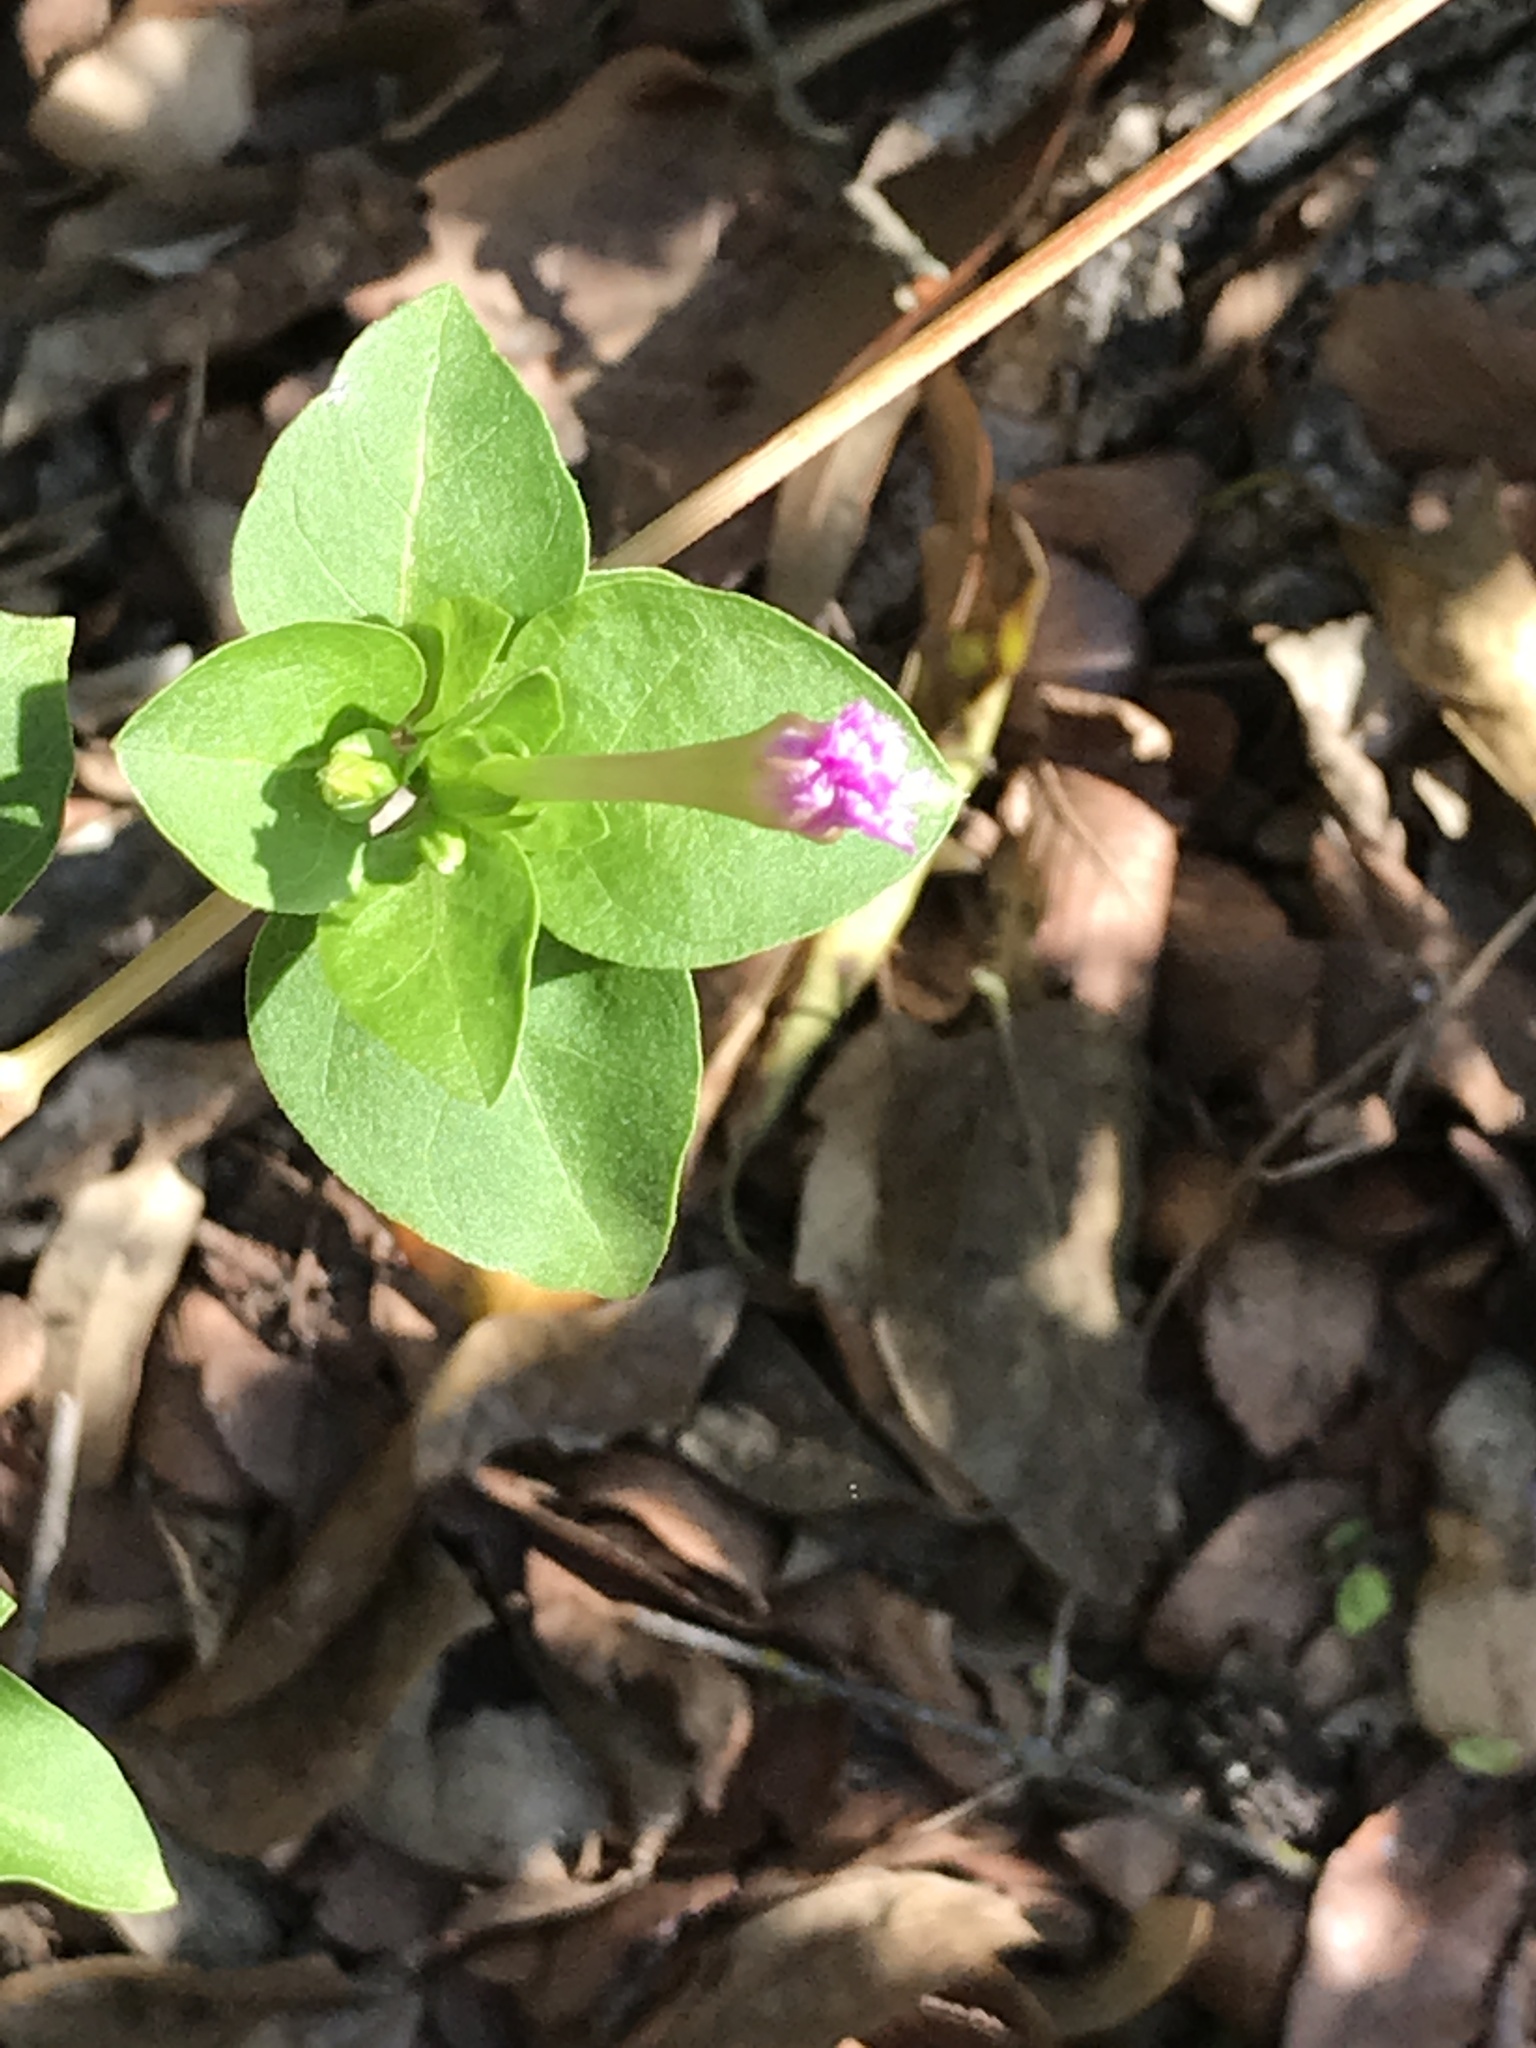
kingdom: Plantae
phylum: Tracheophyta
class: Magnoliopsida
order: Caryophyllales
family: Nyctaginaceae
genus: Mirabilis
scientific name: Mirabilis jalapa
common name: Marvel-of-peru
